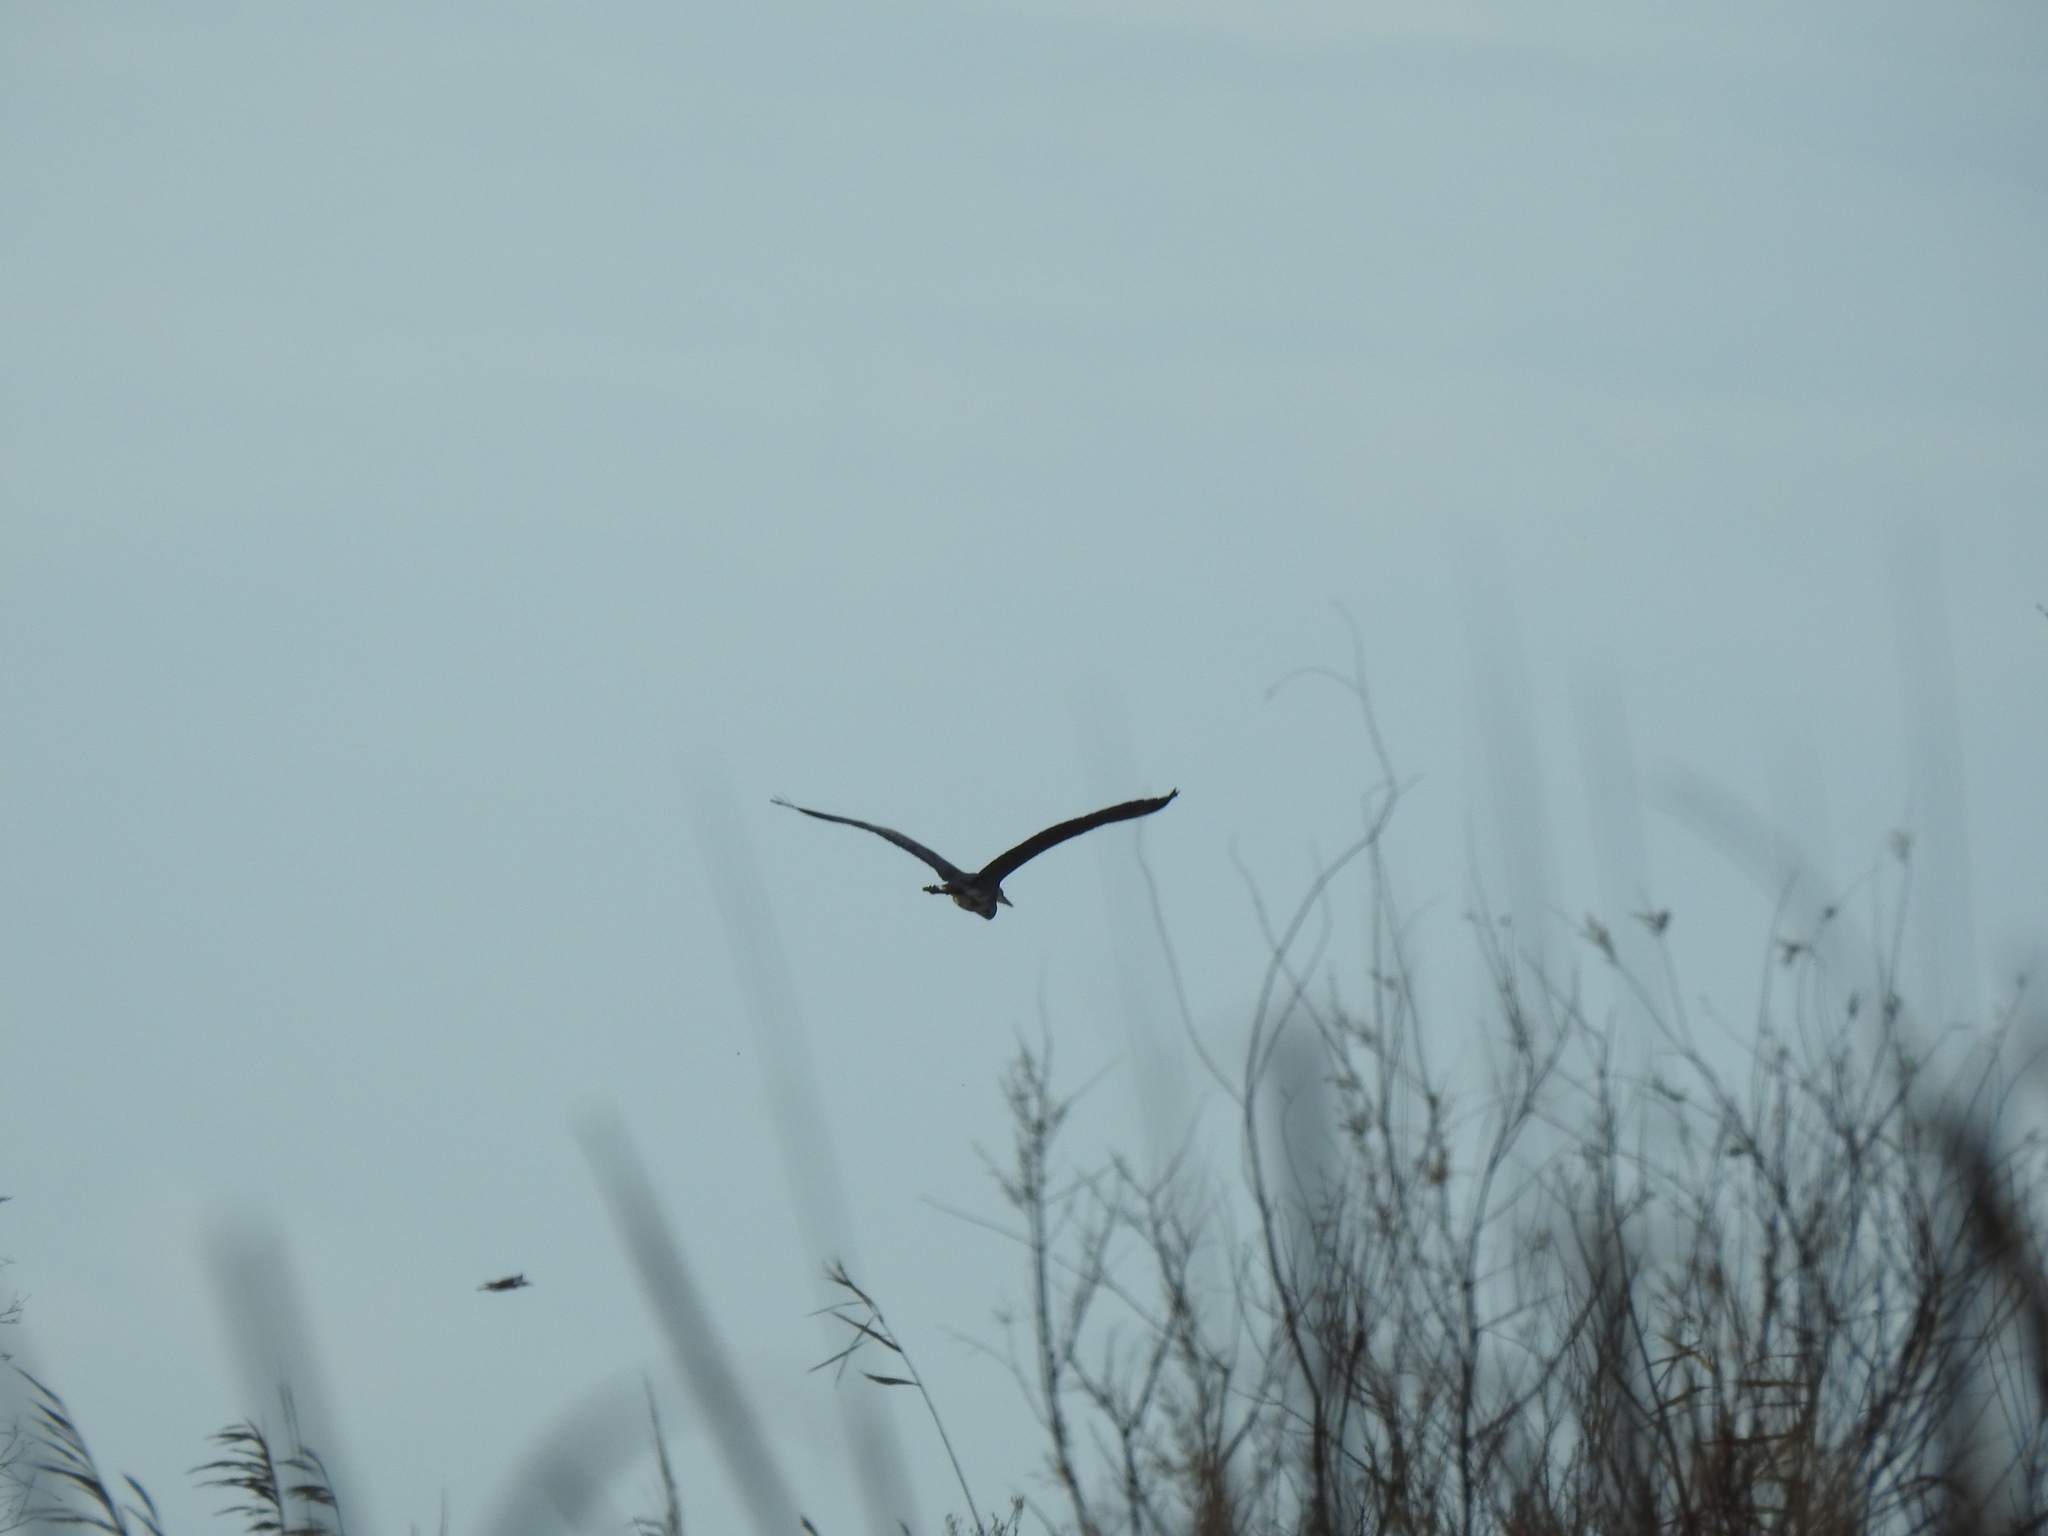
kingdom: Animalia
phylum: Chordata
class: Aves
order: Pelecaniformes
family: Ardeidae
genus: Ardea
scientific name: Ardea cinerea
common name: Grey heron
